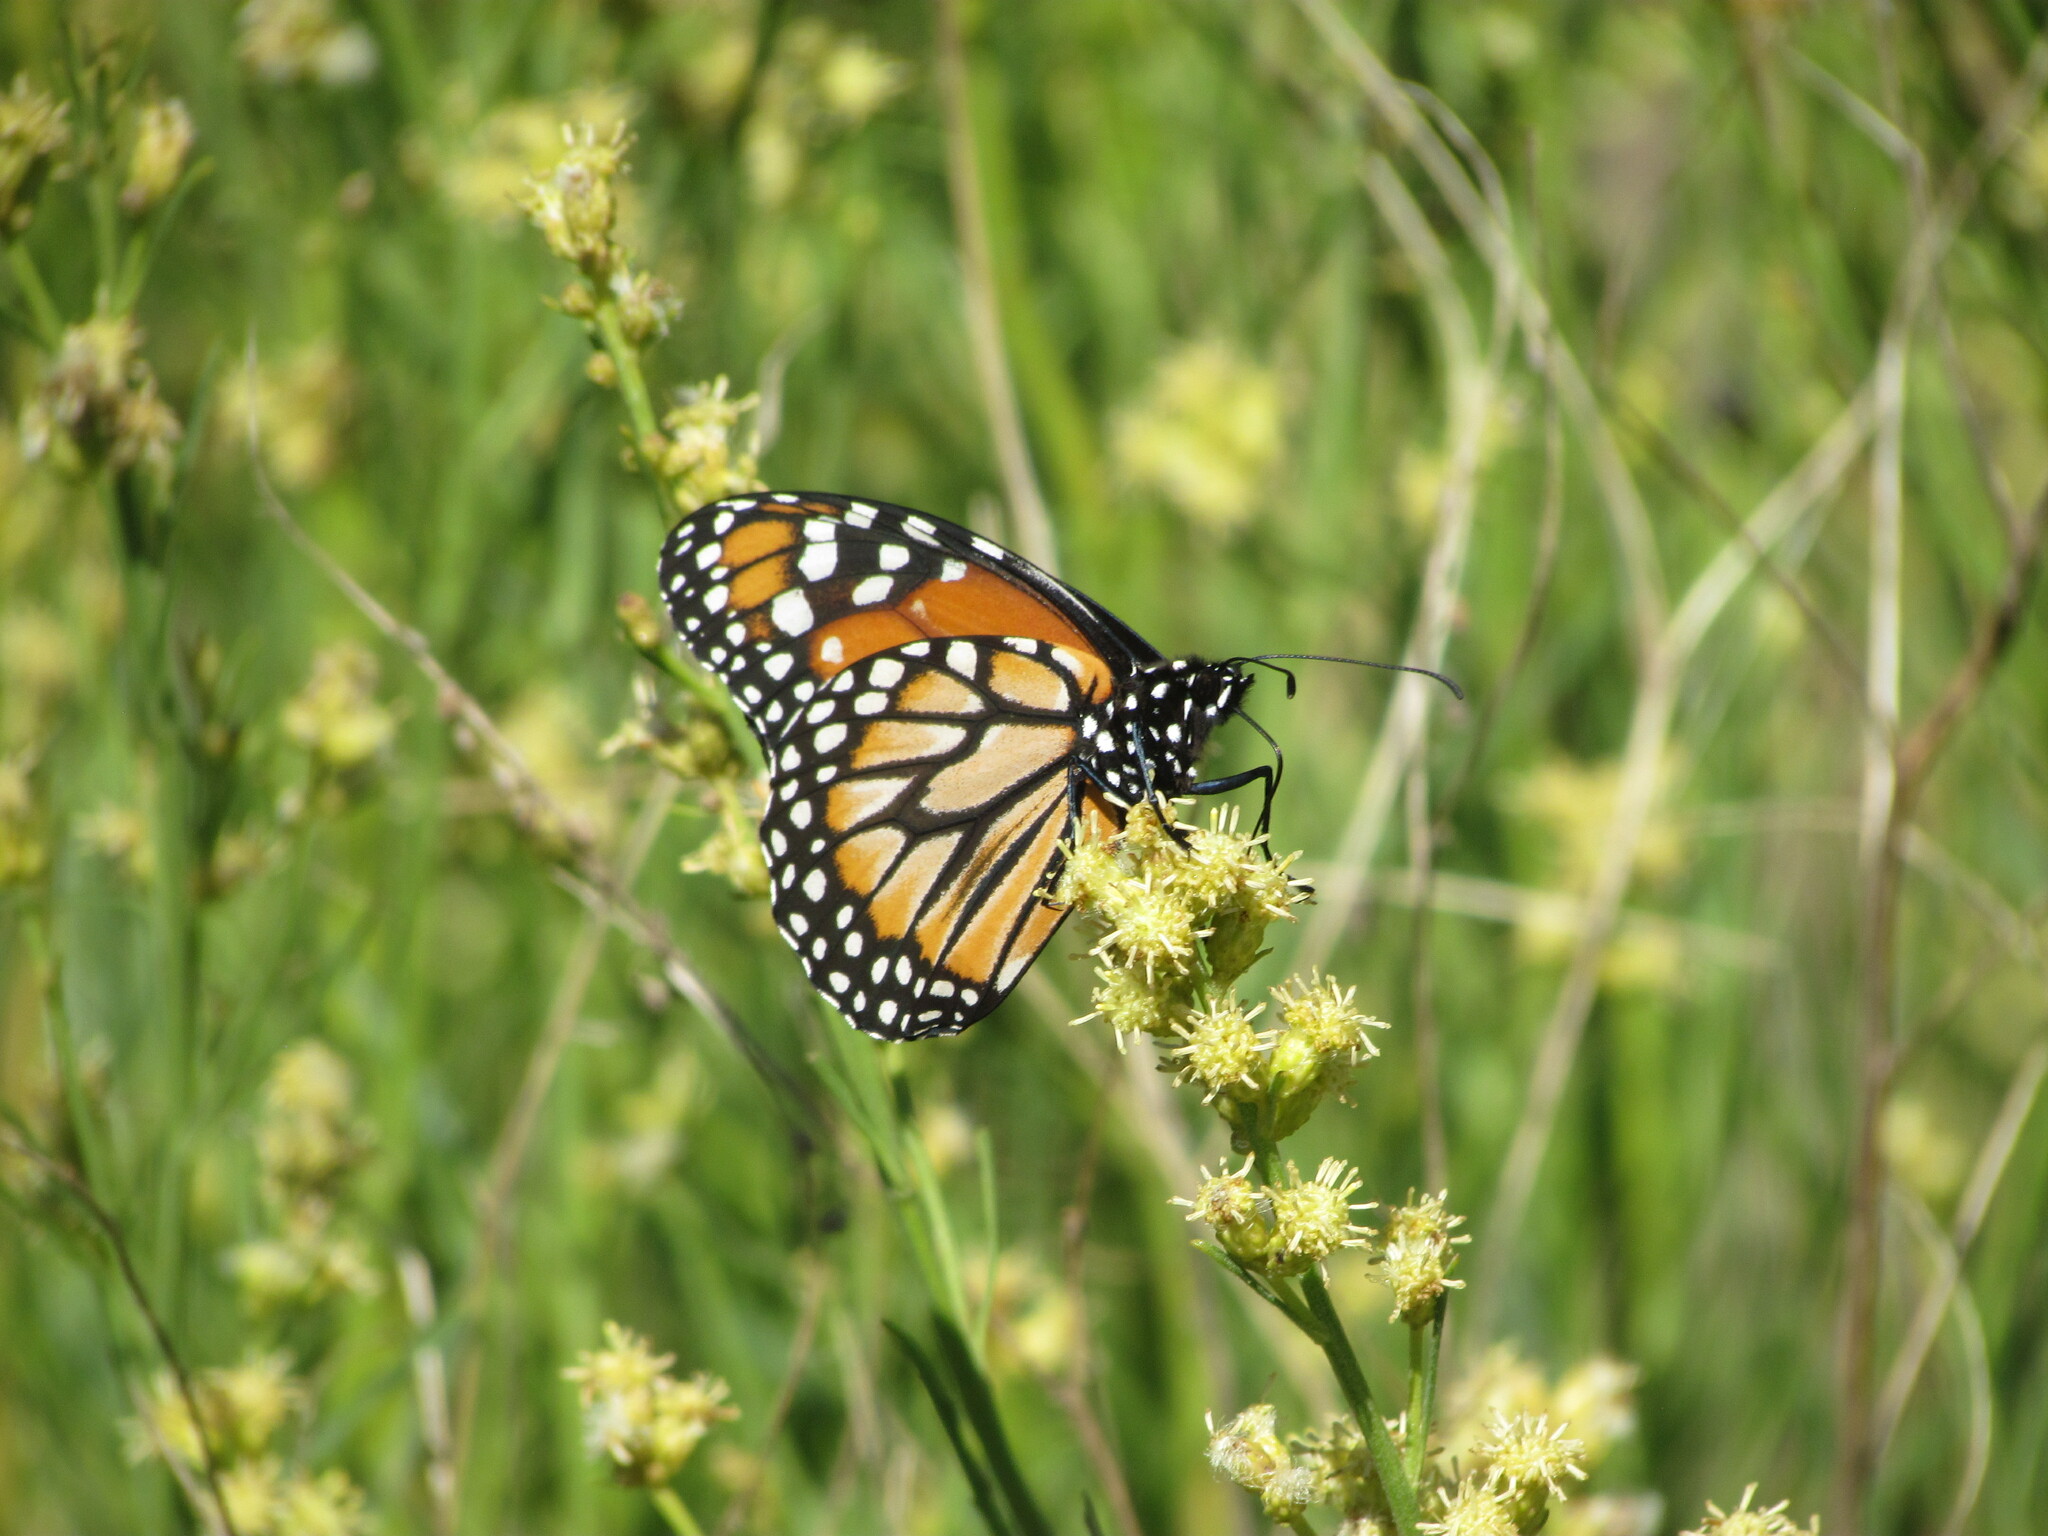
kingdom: Animalia
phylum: Arthropoda
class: Insecta
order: Lepidoptera
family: Nymphalidae
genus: Danaus
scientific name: Danaus erippus
